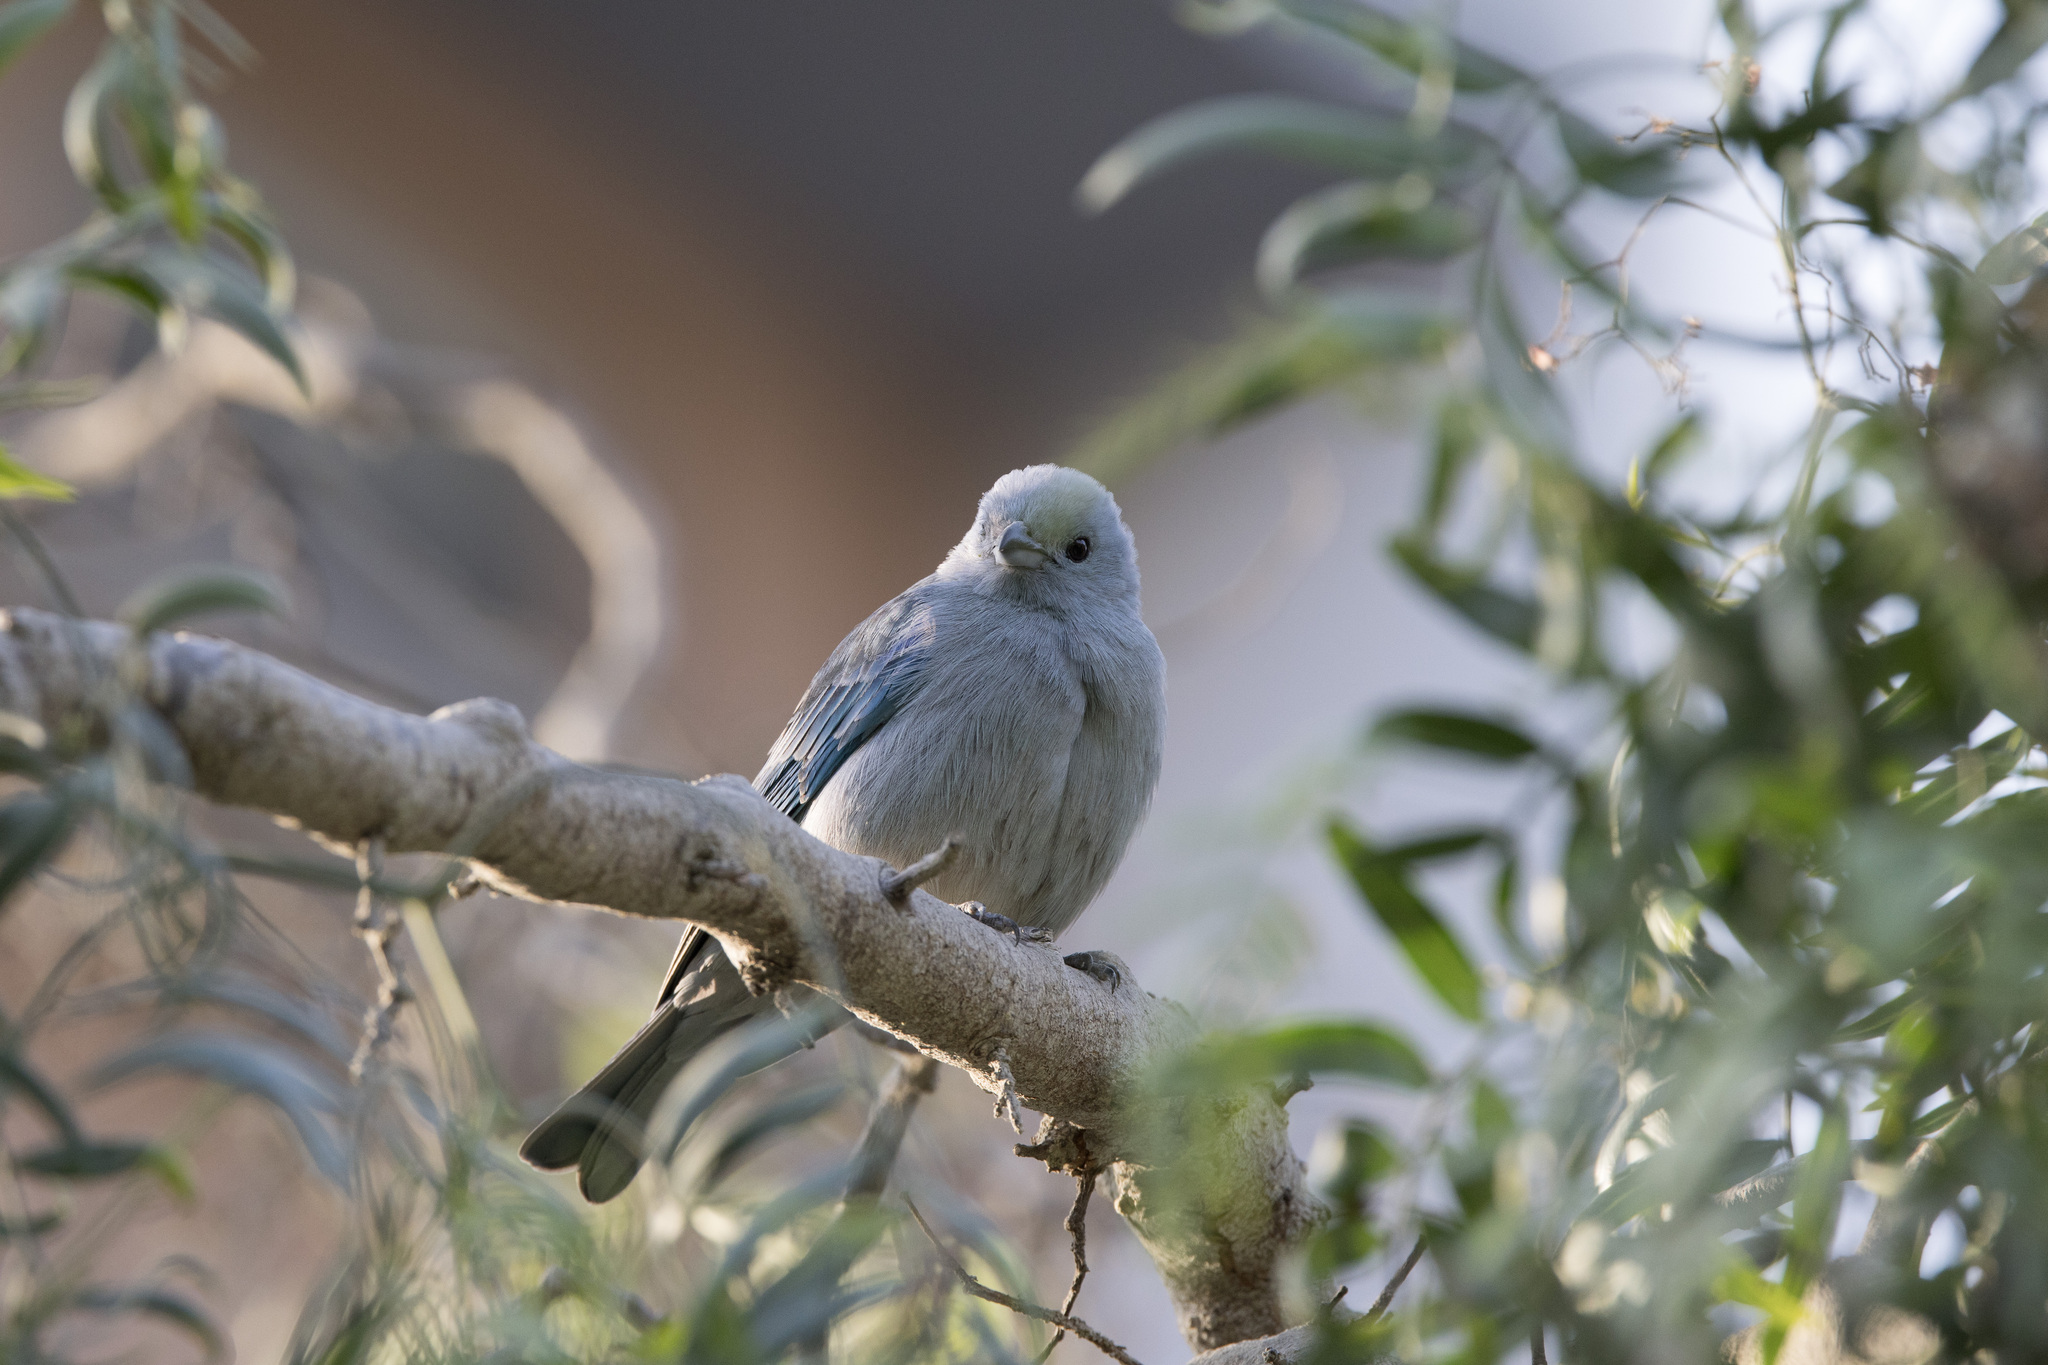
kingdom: Animalia
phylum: Chordata
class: Aves
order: Passeriformes
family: Thraupidae
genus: Thraupis
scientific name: Thraupis episcopus
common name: Blue-grey tanager
